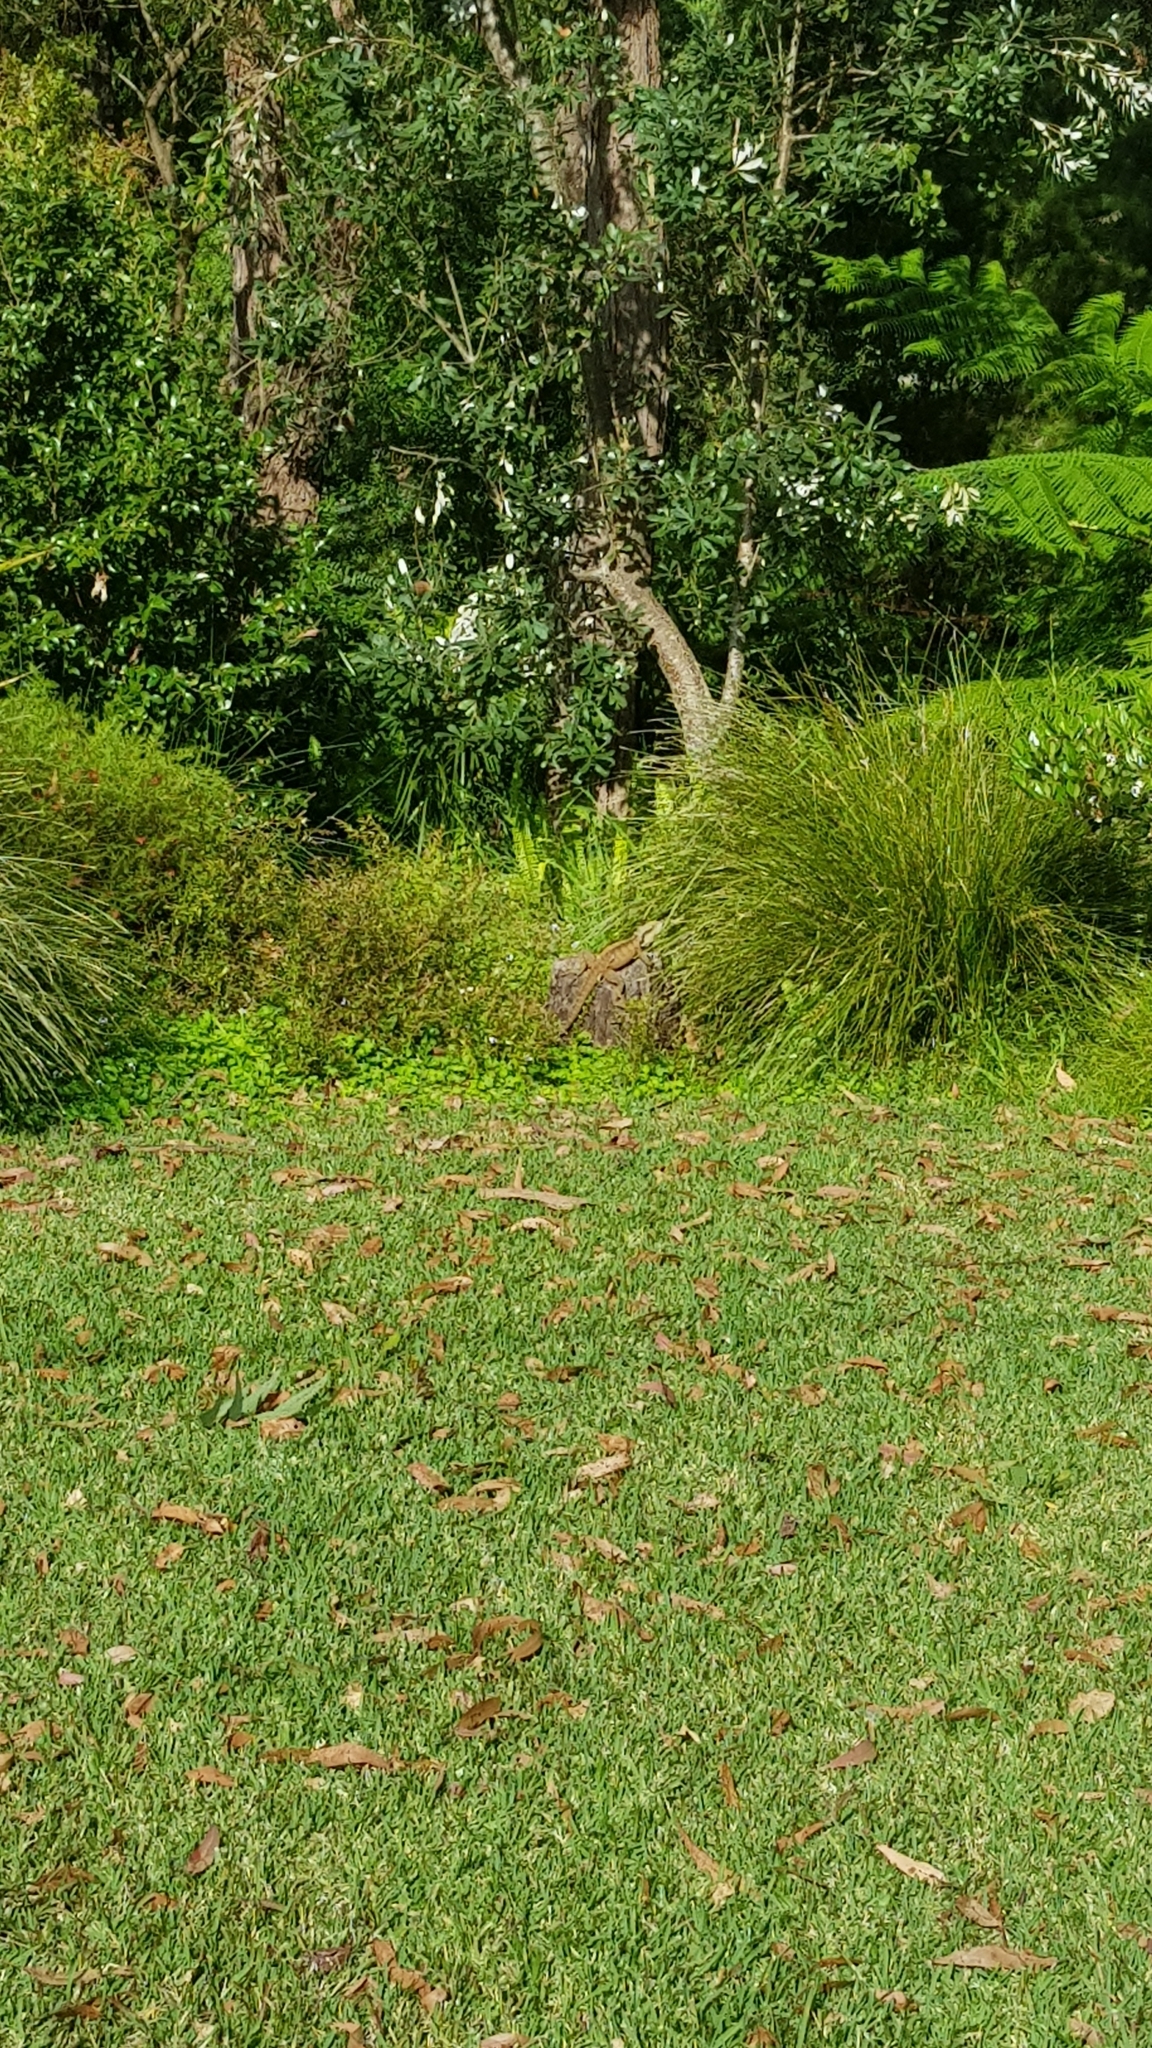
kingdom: Animalia
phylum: Chordata
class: Squamata
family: Agamidae
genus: Intellagama
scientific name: Intellagama lesueurii
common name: Eastern water dragon
